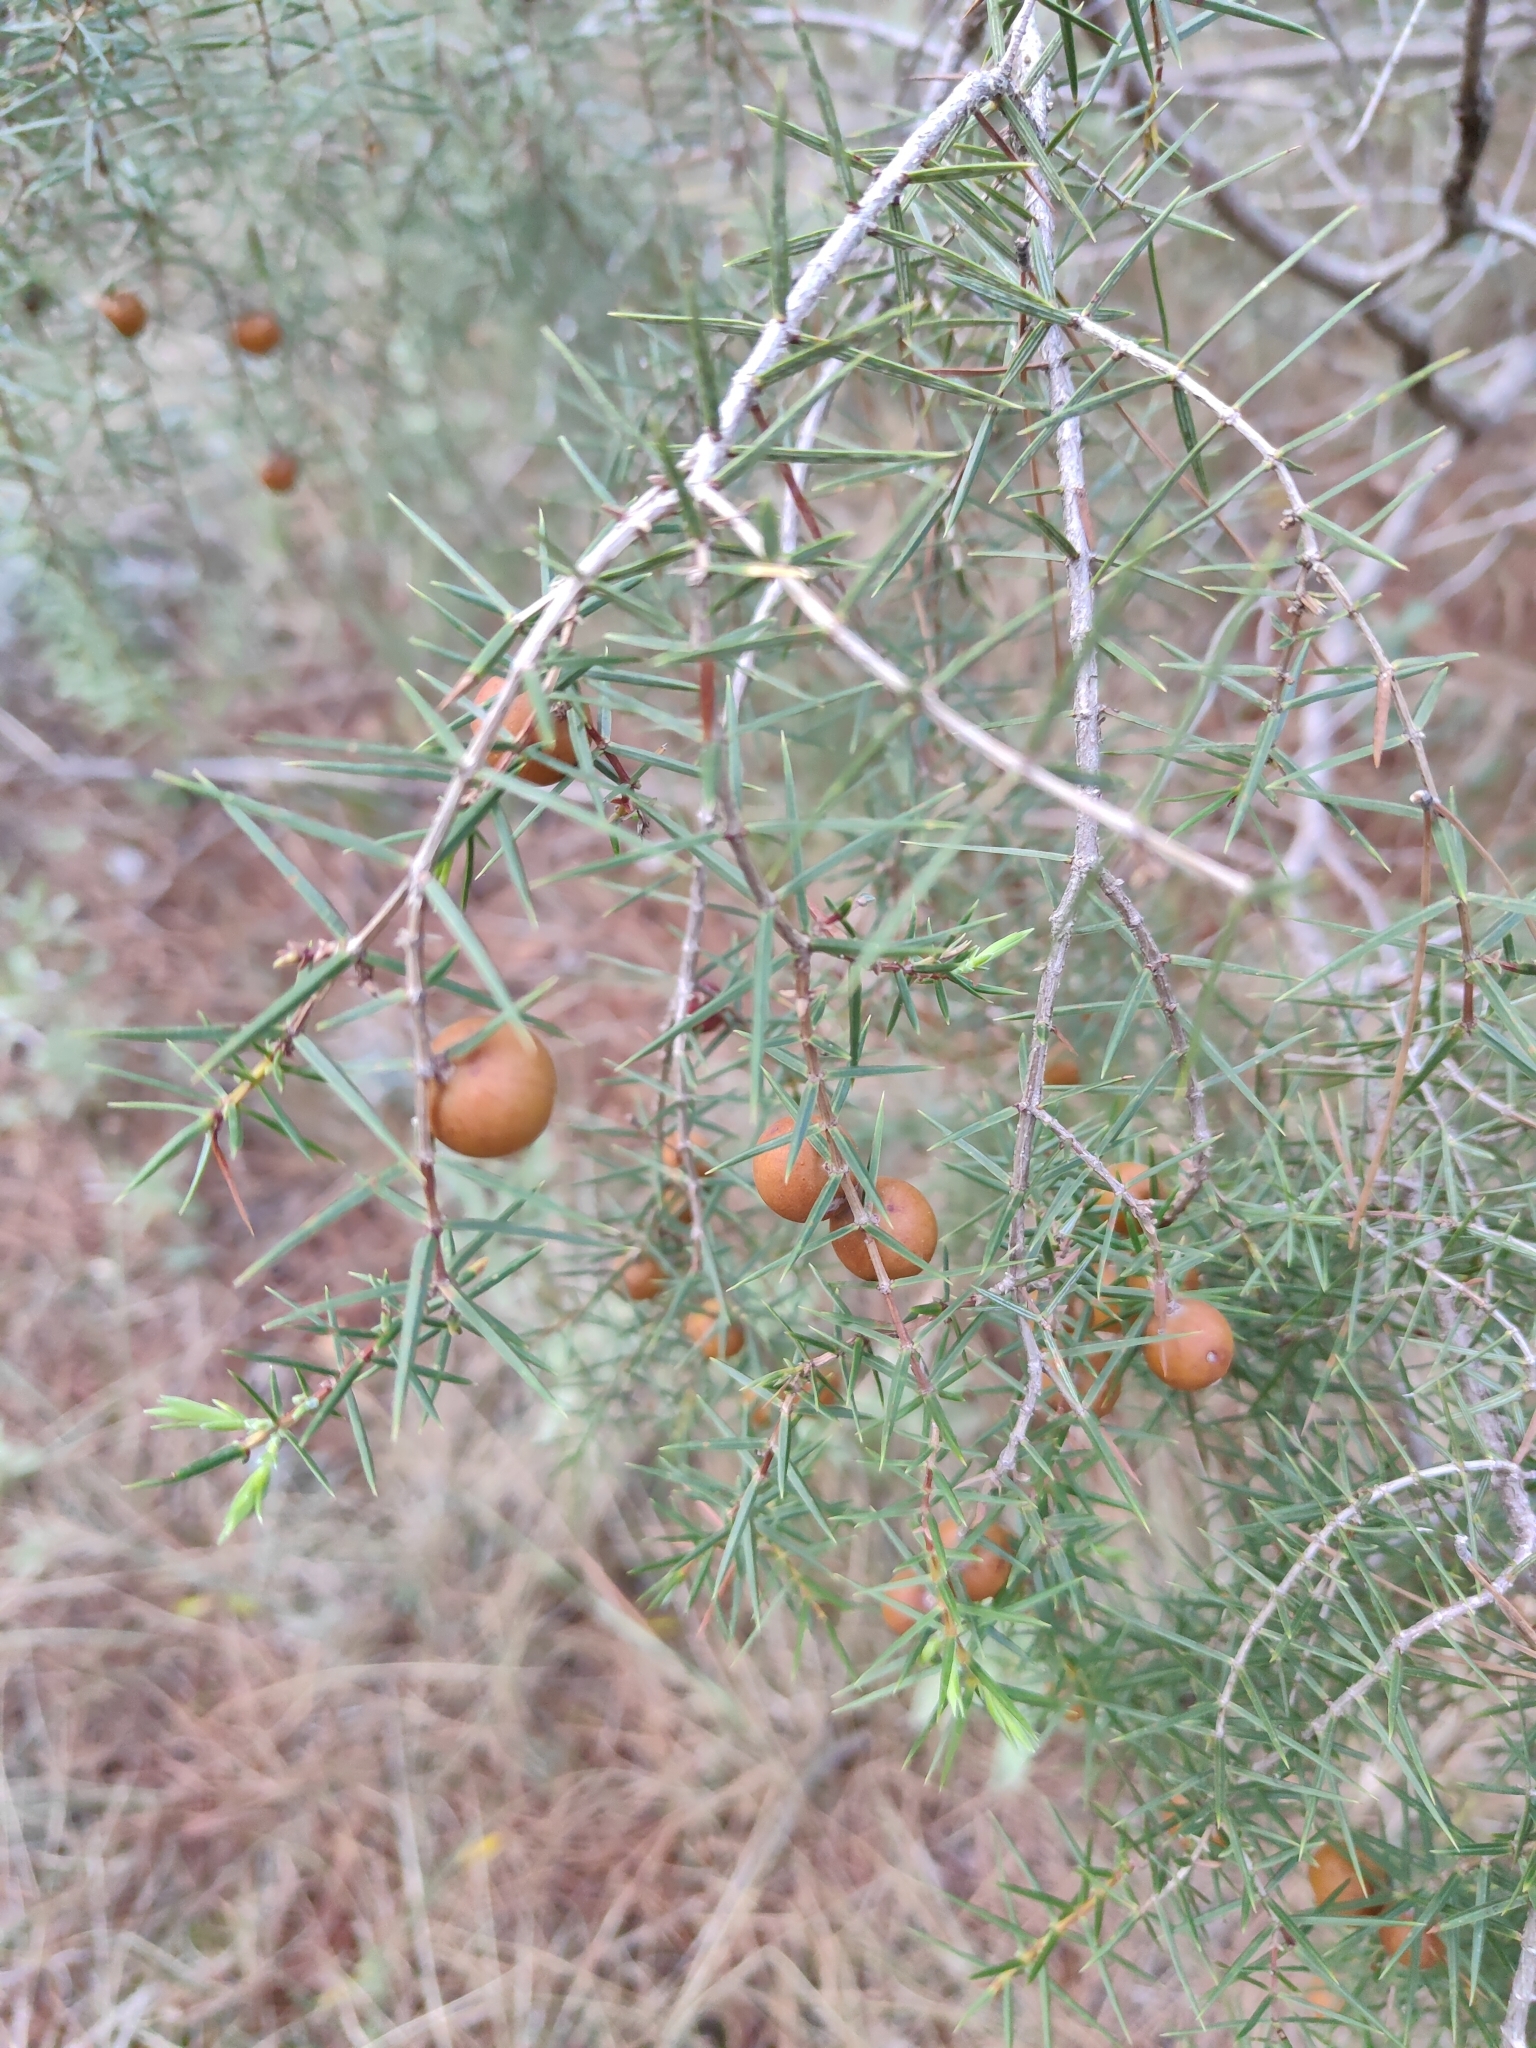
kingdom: Plantae
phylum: Tracheophyta
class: Pinopsida
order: Pinales
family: Cupressaceae
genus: Juniperus
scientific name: Juniperus oxycedrus
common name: Prickly juniper
